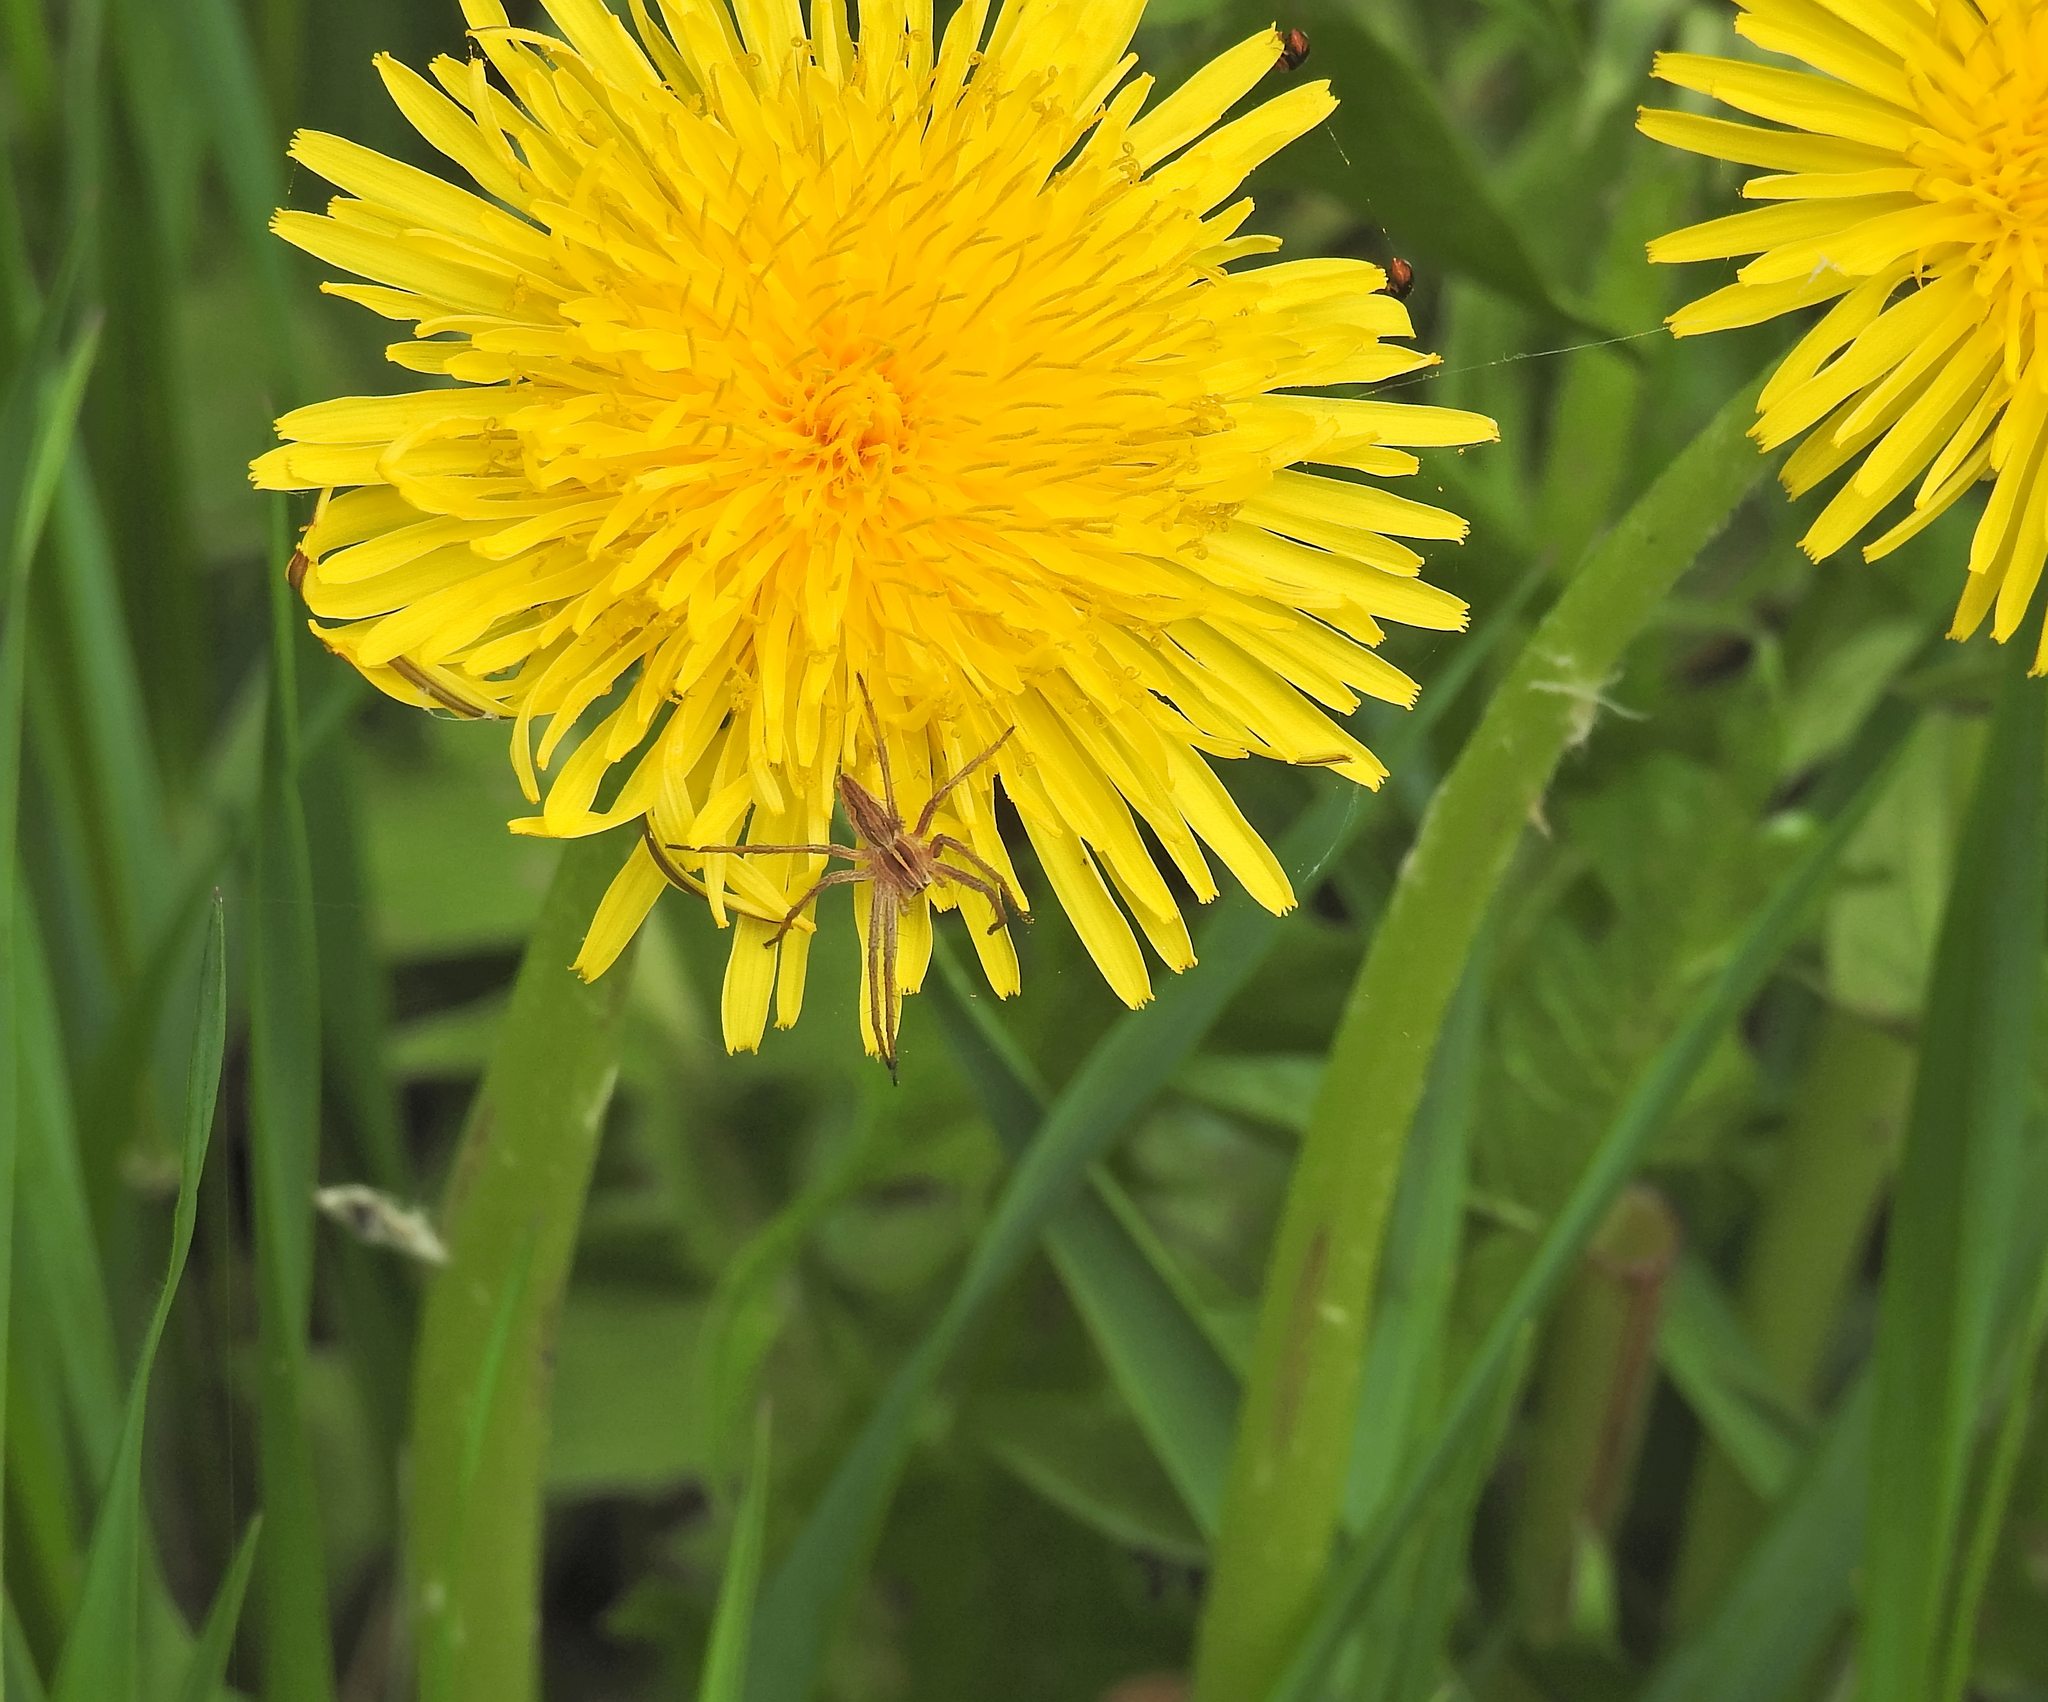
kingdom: Animalia
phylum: Arthropoda
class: Arachnida
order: Araneae
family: Pisauridae
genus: Pisaura
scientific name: Pisaura mirabilis
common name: Tent spider
